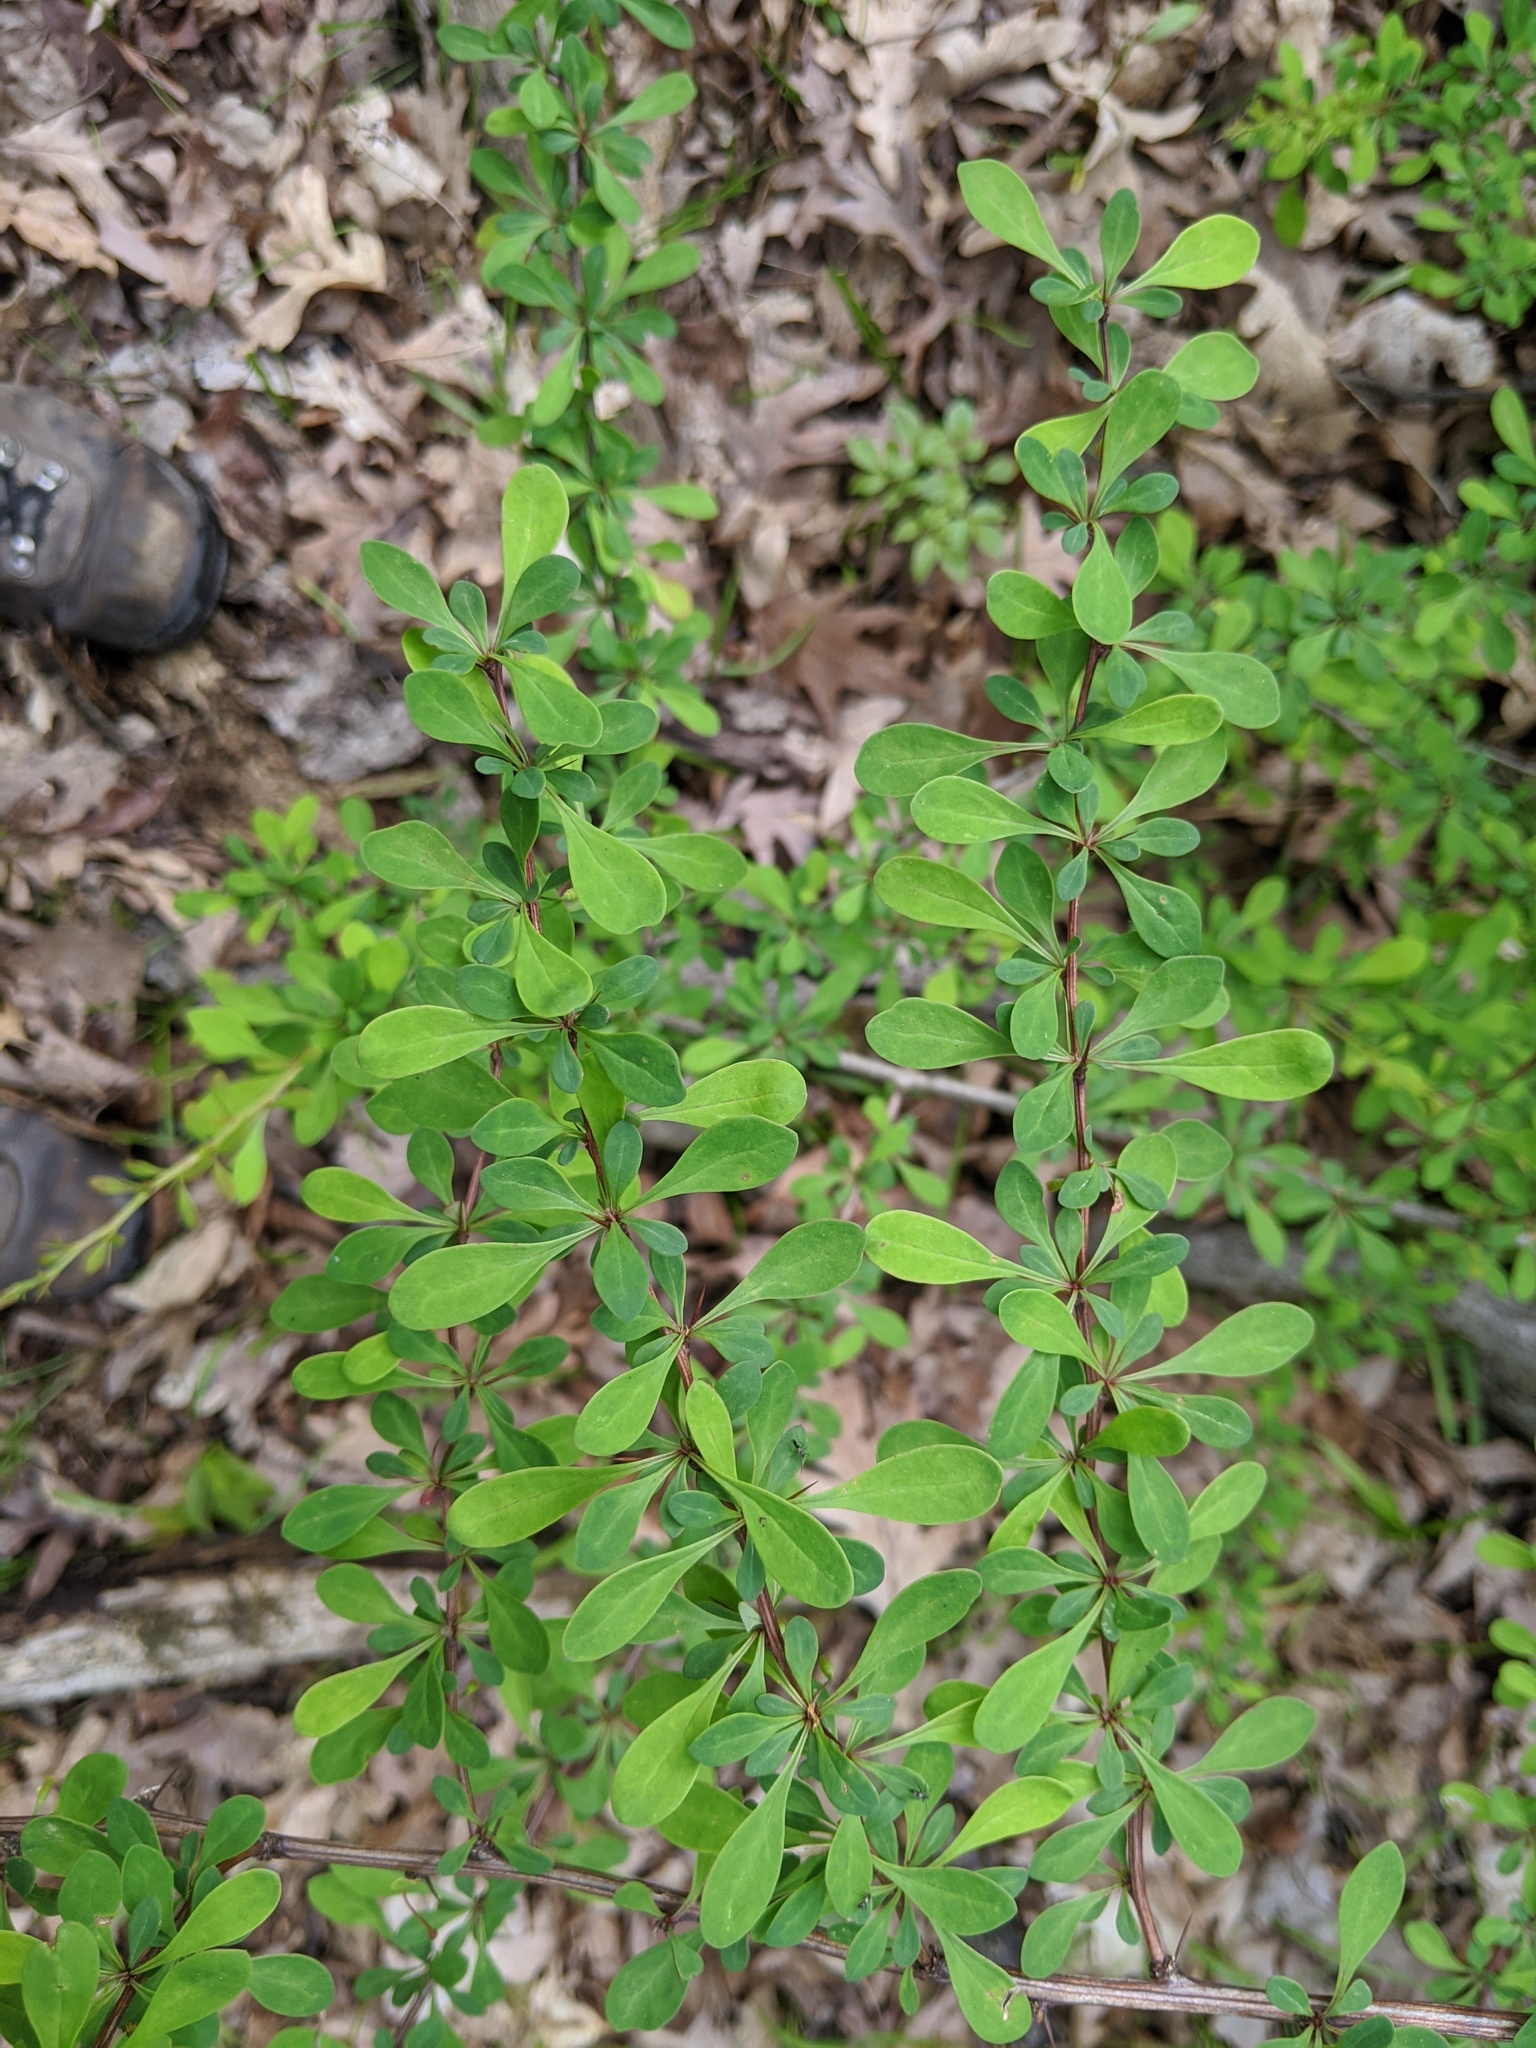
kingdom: Plantae
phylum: Tracheophyta
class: Magnoliopsida
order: Ranunculales
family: Berberidaceae
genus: Berberis
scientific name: Berberis thunbergii
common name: Japanese barberry
